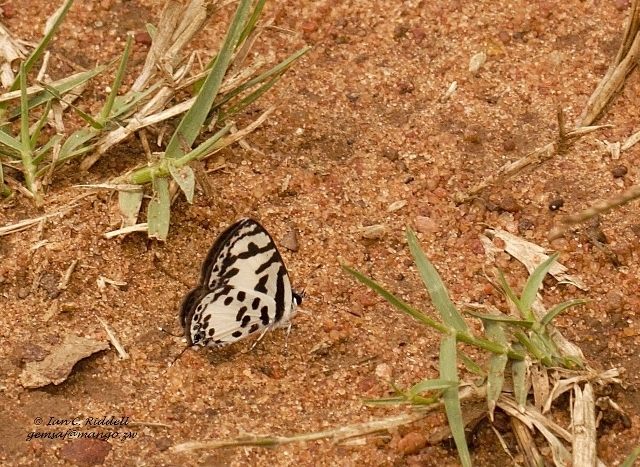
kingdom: Animalia
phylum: Arthropoda
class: Insecta
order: Lepidoptera
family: Lycaenidae
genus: Castalius
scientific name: Castalius calice
